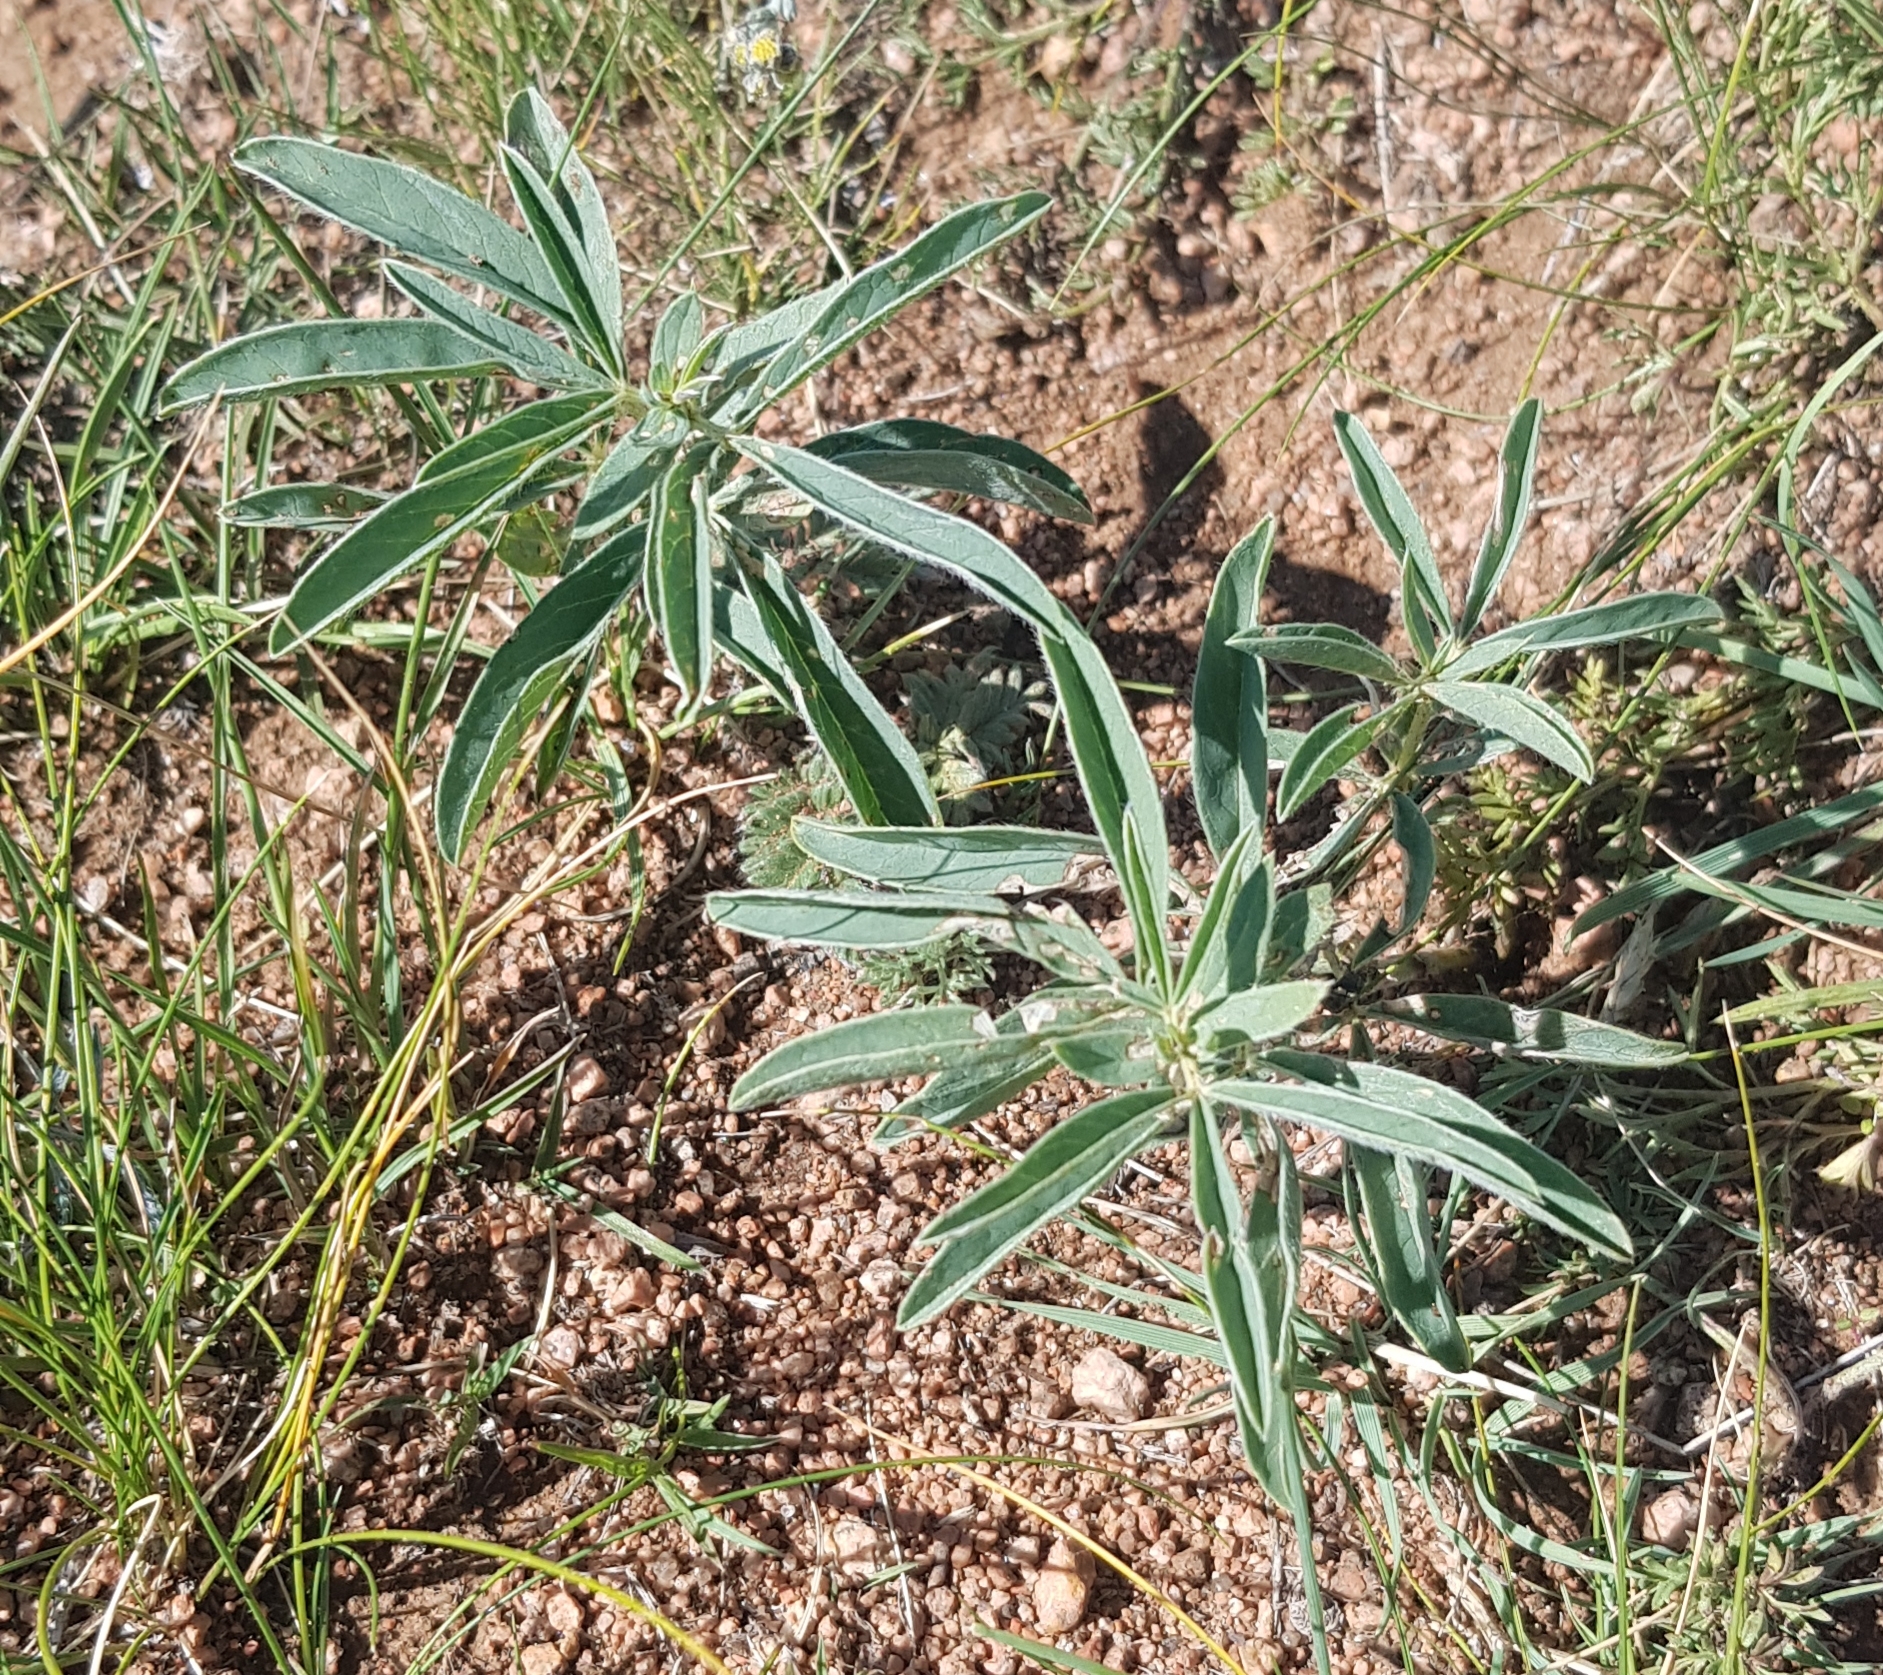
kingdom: Plantae
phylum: Tracheophyta
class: Magnoliopsida
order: Fabales
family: Fabaceae
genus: Thermopsis
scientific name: Thermopsis lanceolata
